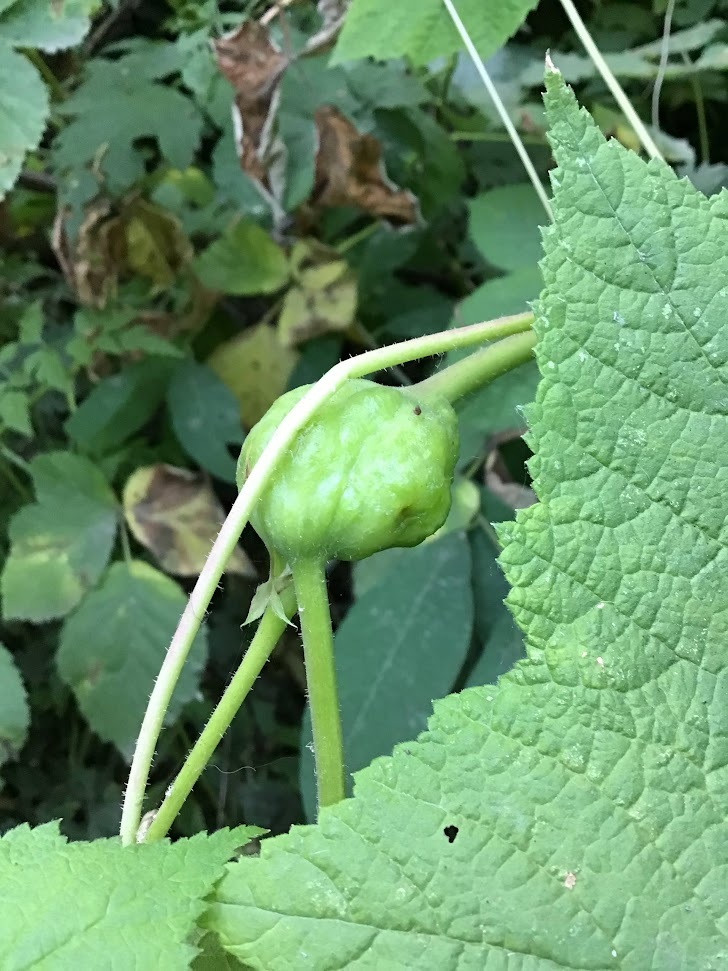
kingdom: Animalia
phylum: Arthropoda
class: Insecta
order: Hymenoptera
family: Cynipidae
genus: Diastrophus
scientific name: Diastrophus
